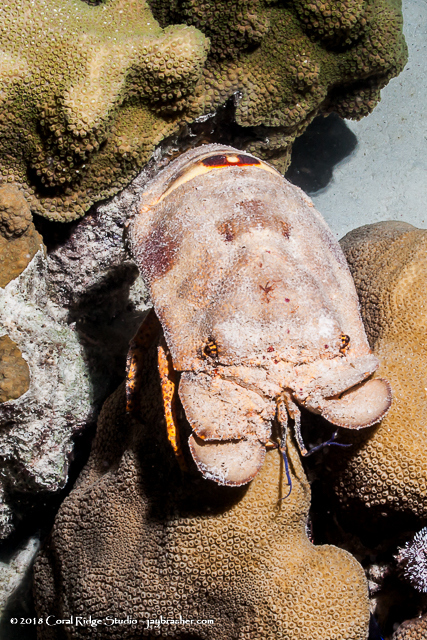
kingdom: Animalia
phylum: Arthropoda
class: Malacostraca
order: Decapoda
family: Scyllaridae
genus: Scyllarides
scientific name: Scyllarides aequinoctialis
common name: Spanish slipper lobster
